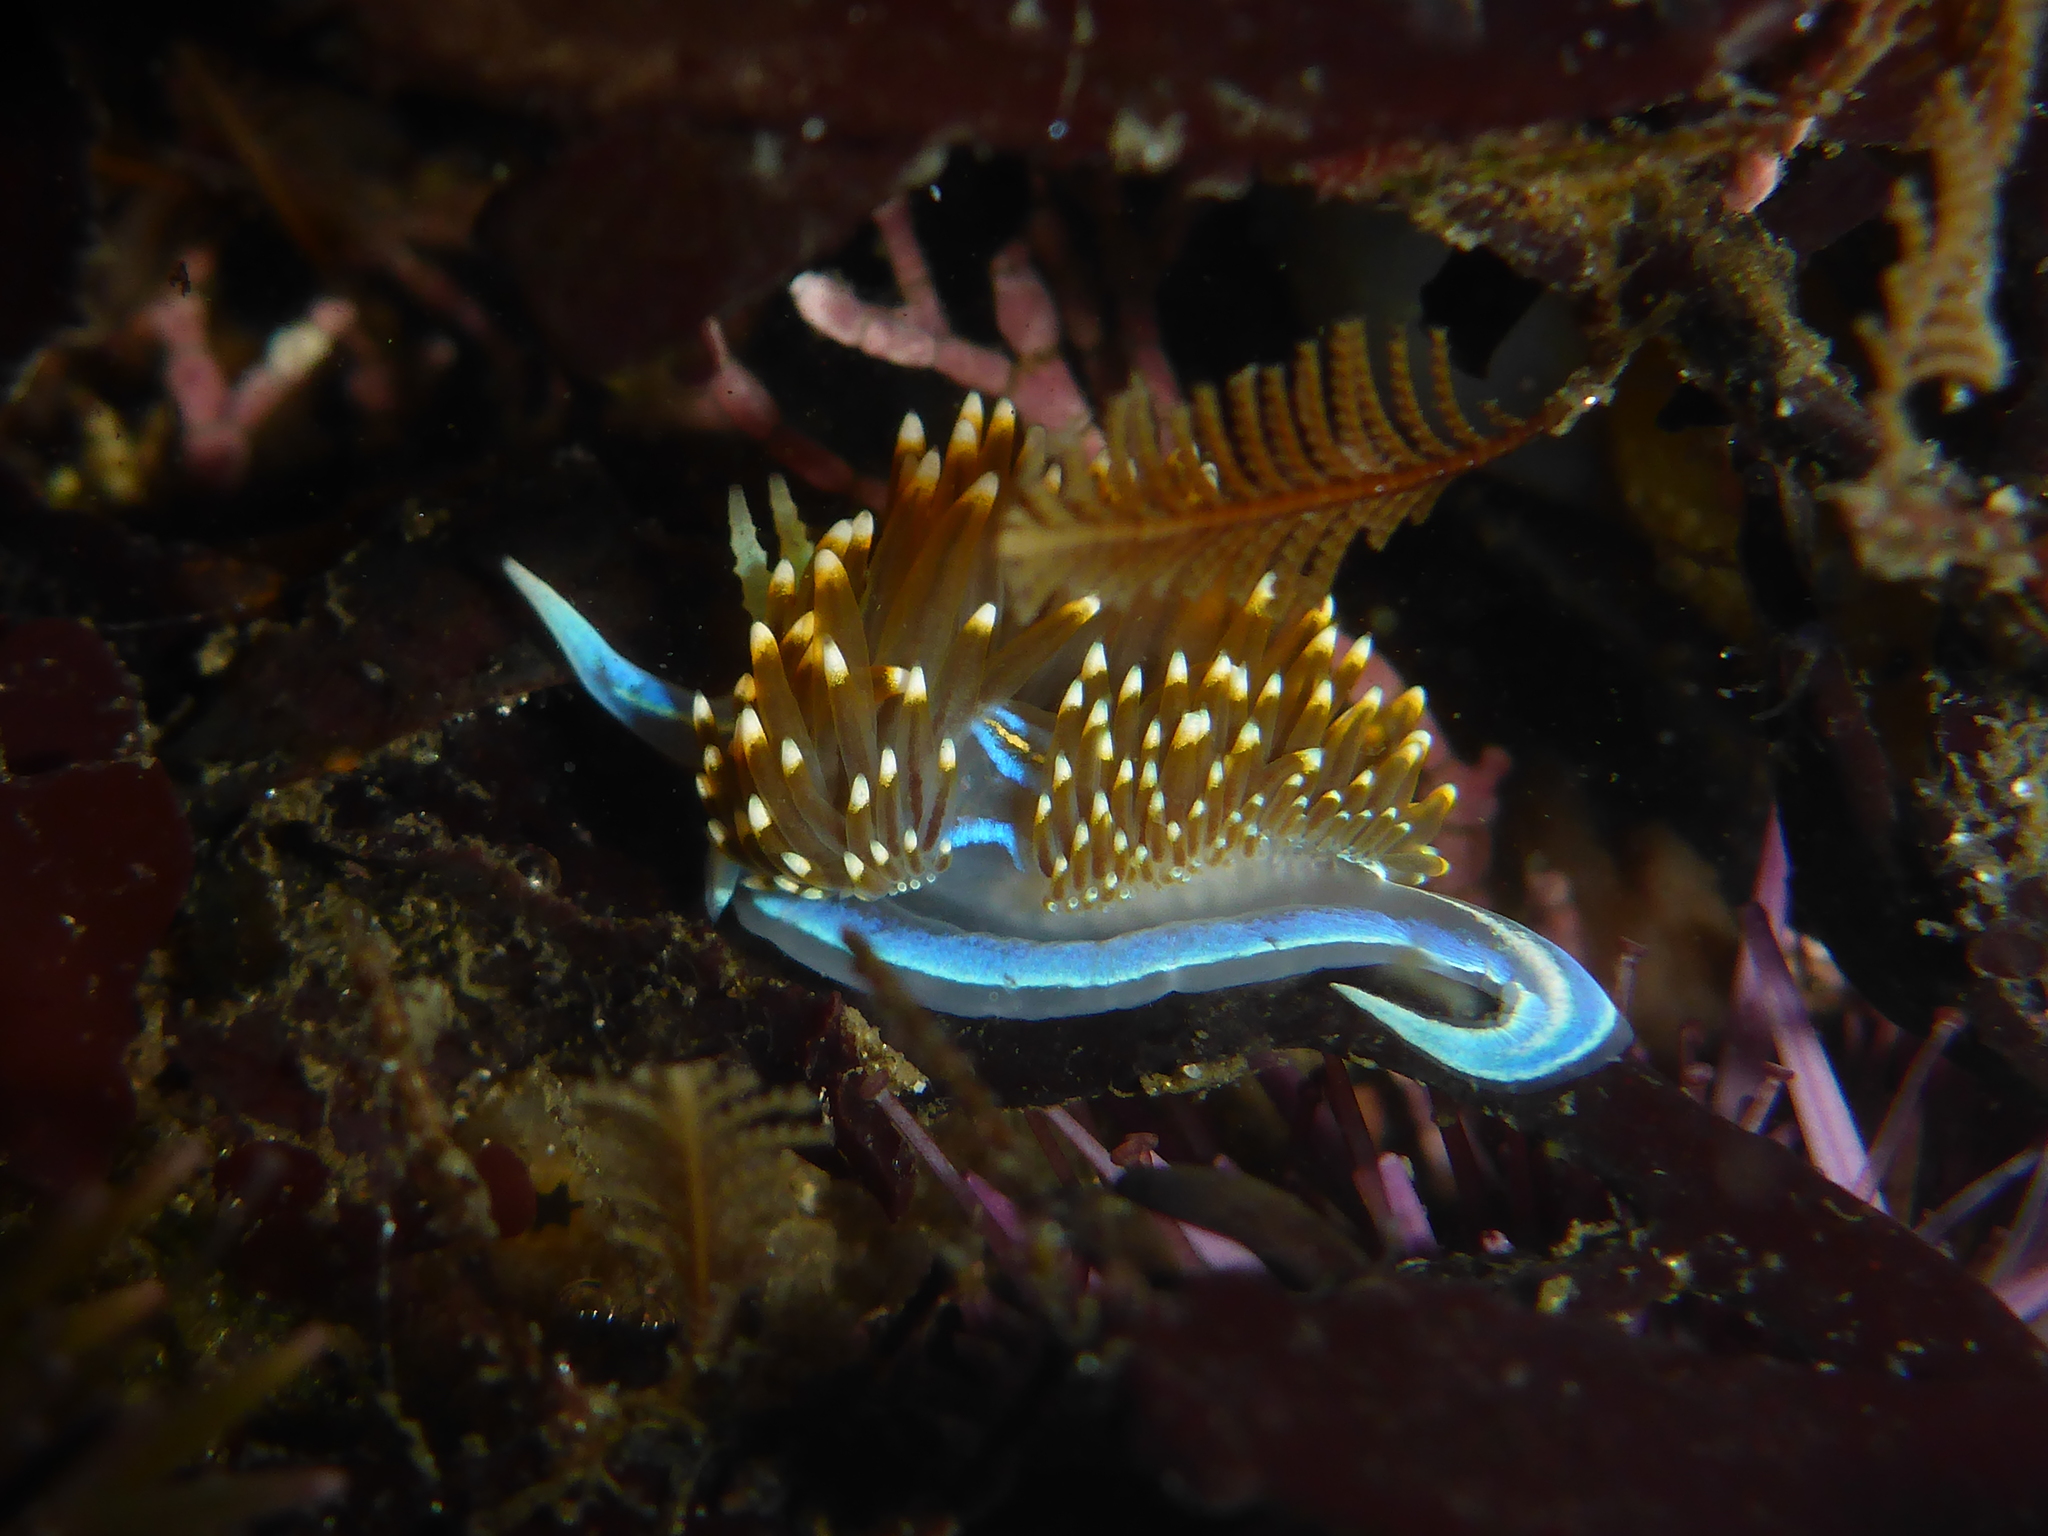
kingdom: Animalia
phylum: Mollusca
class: Gastropoda
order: Nudibranchia
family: Myrrhinidae
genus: Hermissenda
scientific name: Hermissenda opalescens
